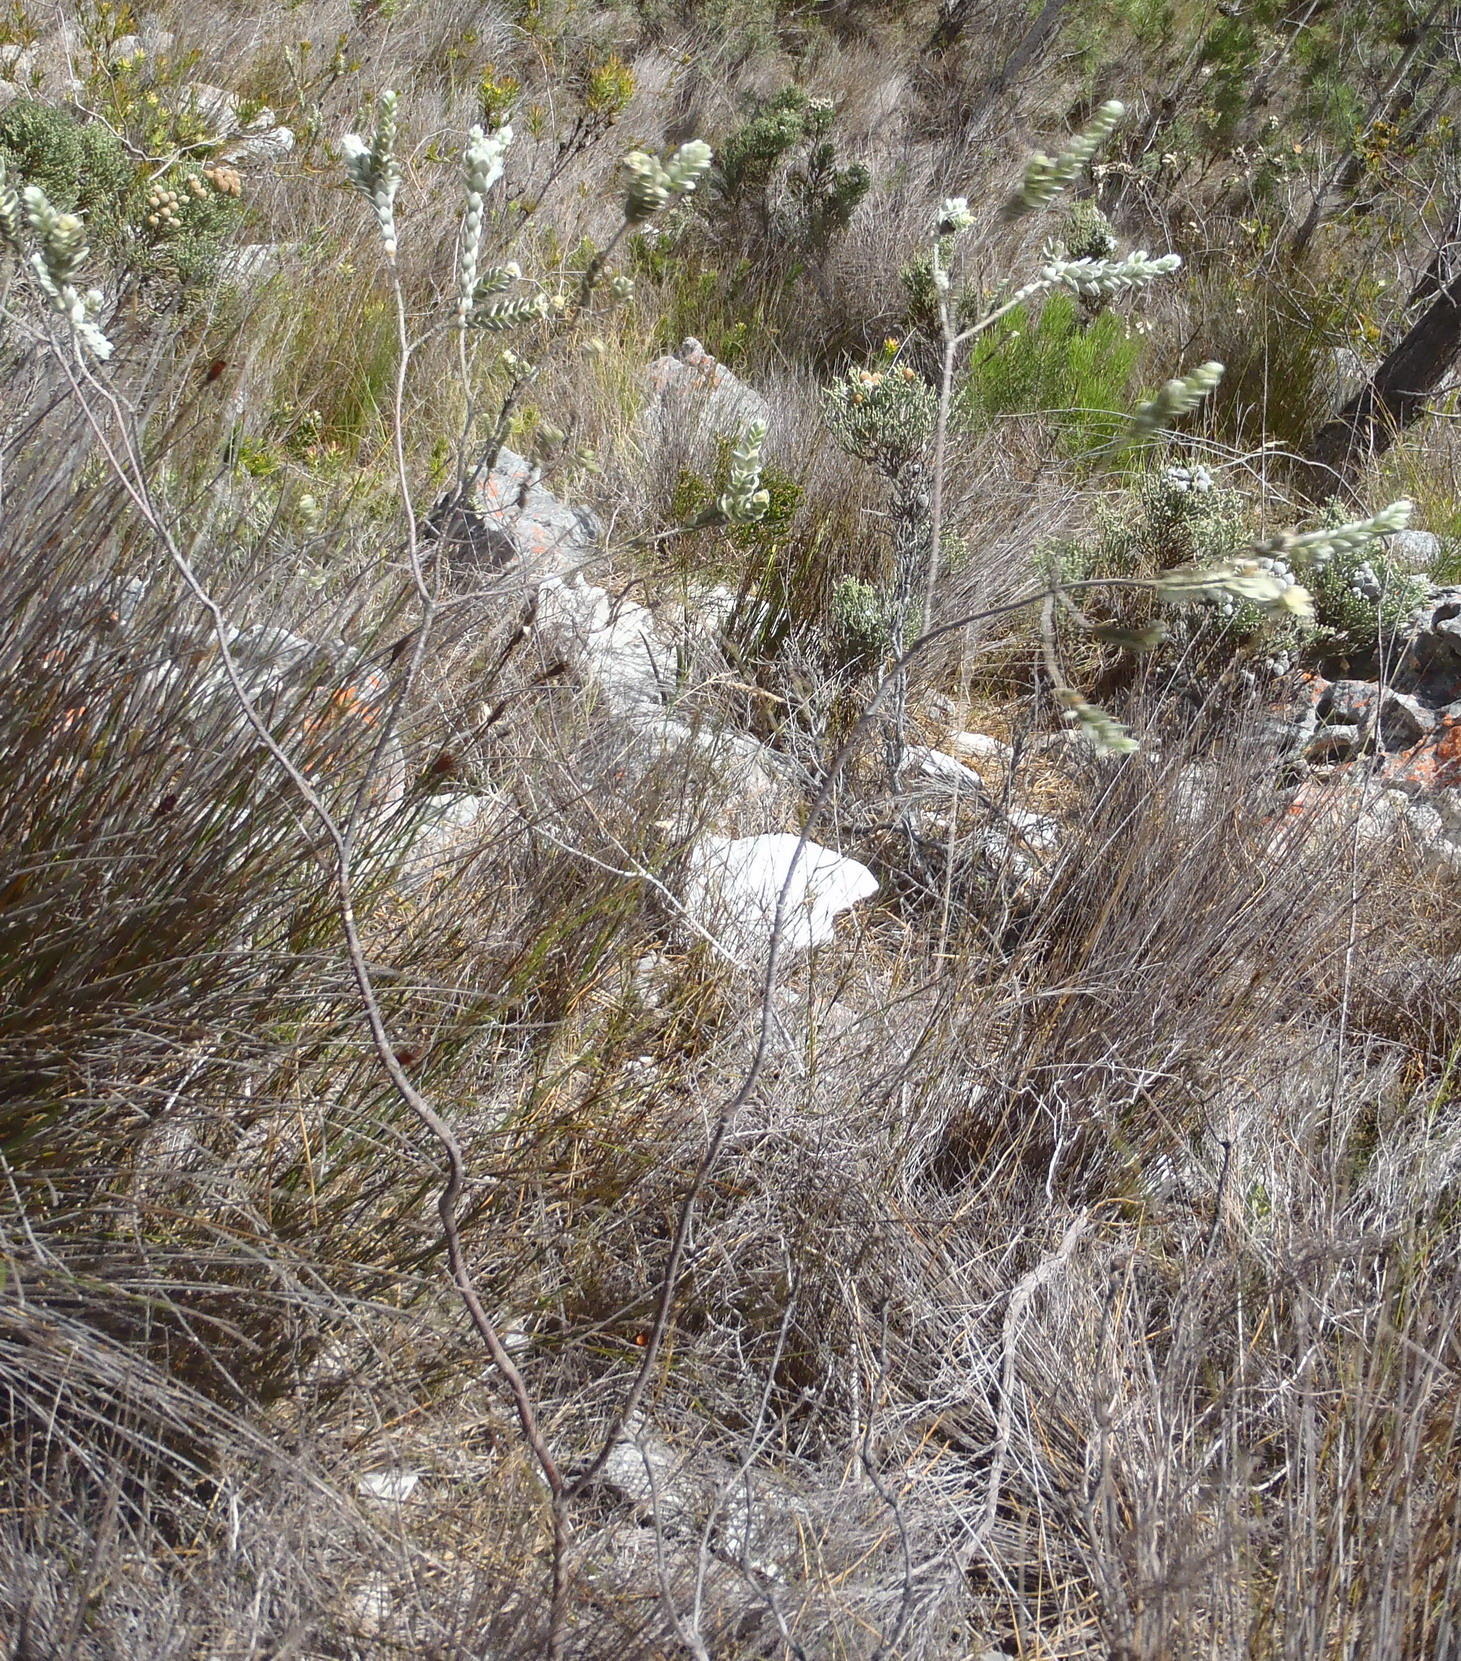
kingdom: Plantae
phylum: Tracheophyta
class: Magnoliopsida
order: Malvales
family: Thymelaeaceae
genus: Gnidia
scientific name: Gnidia tenella
